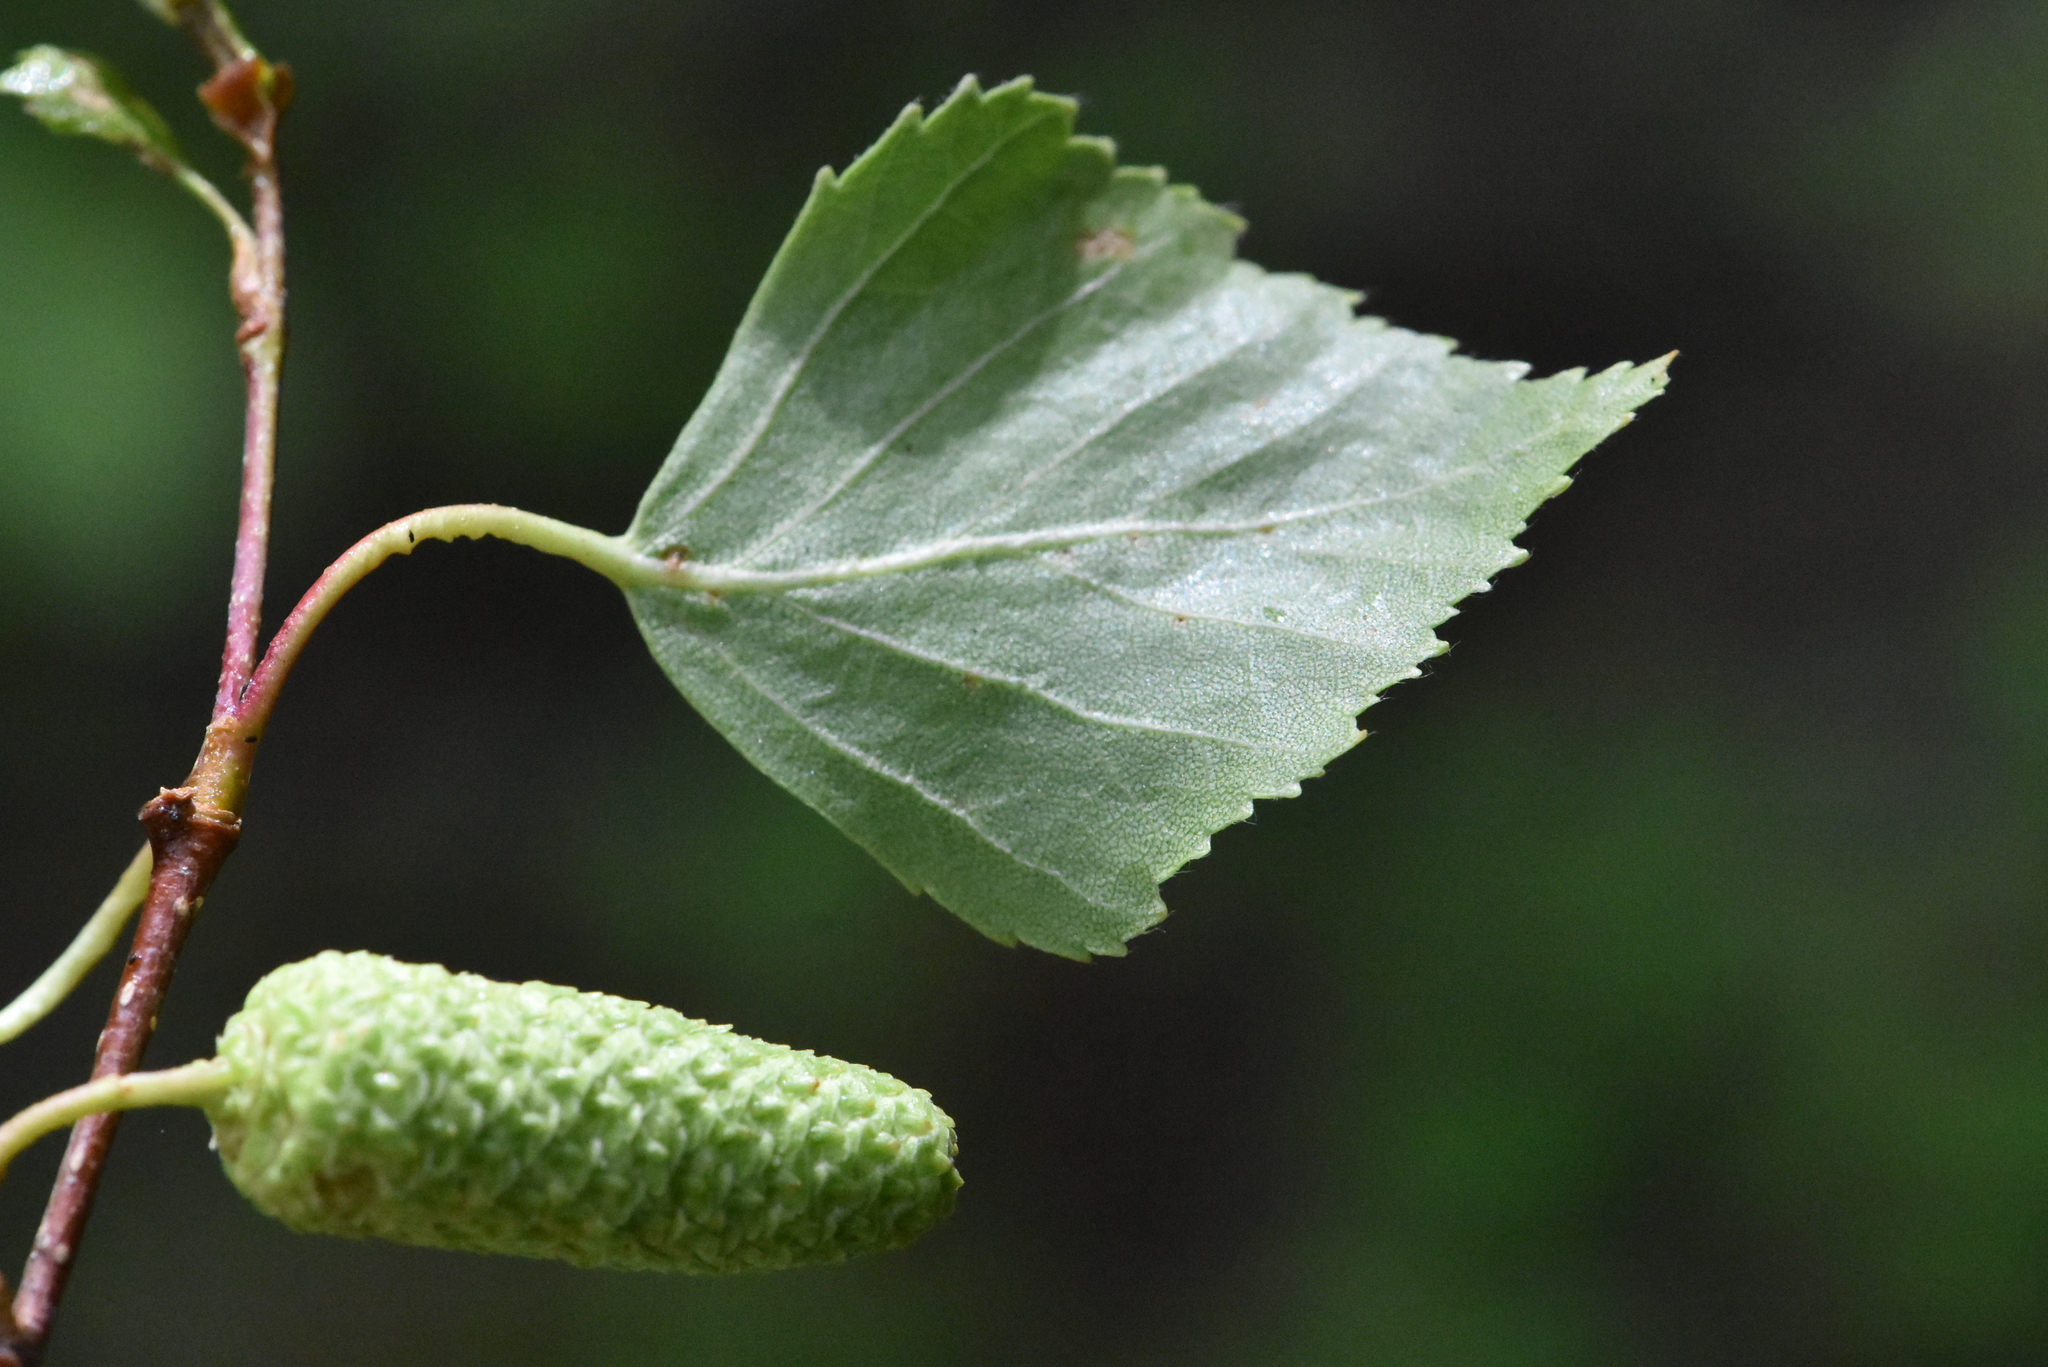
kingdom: Plantae
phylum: Tracheophyta
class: Magnoliopsida
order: Fagales
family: Betulaceae
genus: Betula
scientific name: Betula pendula
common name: Silver birch
